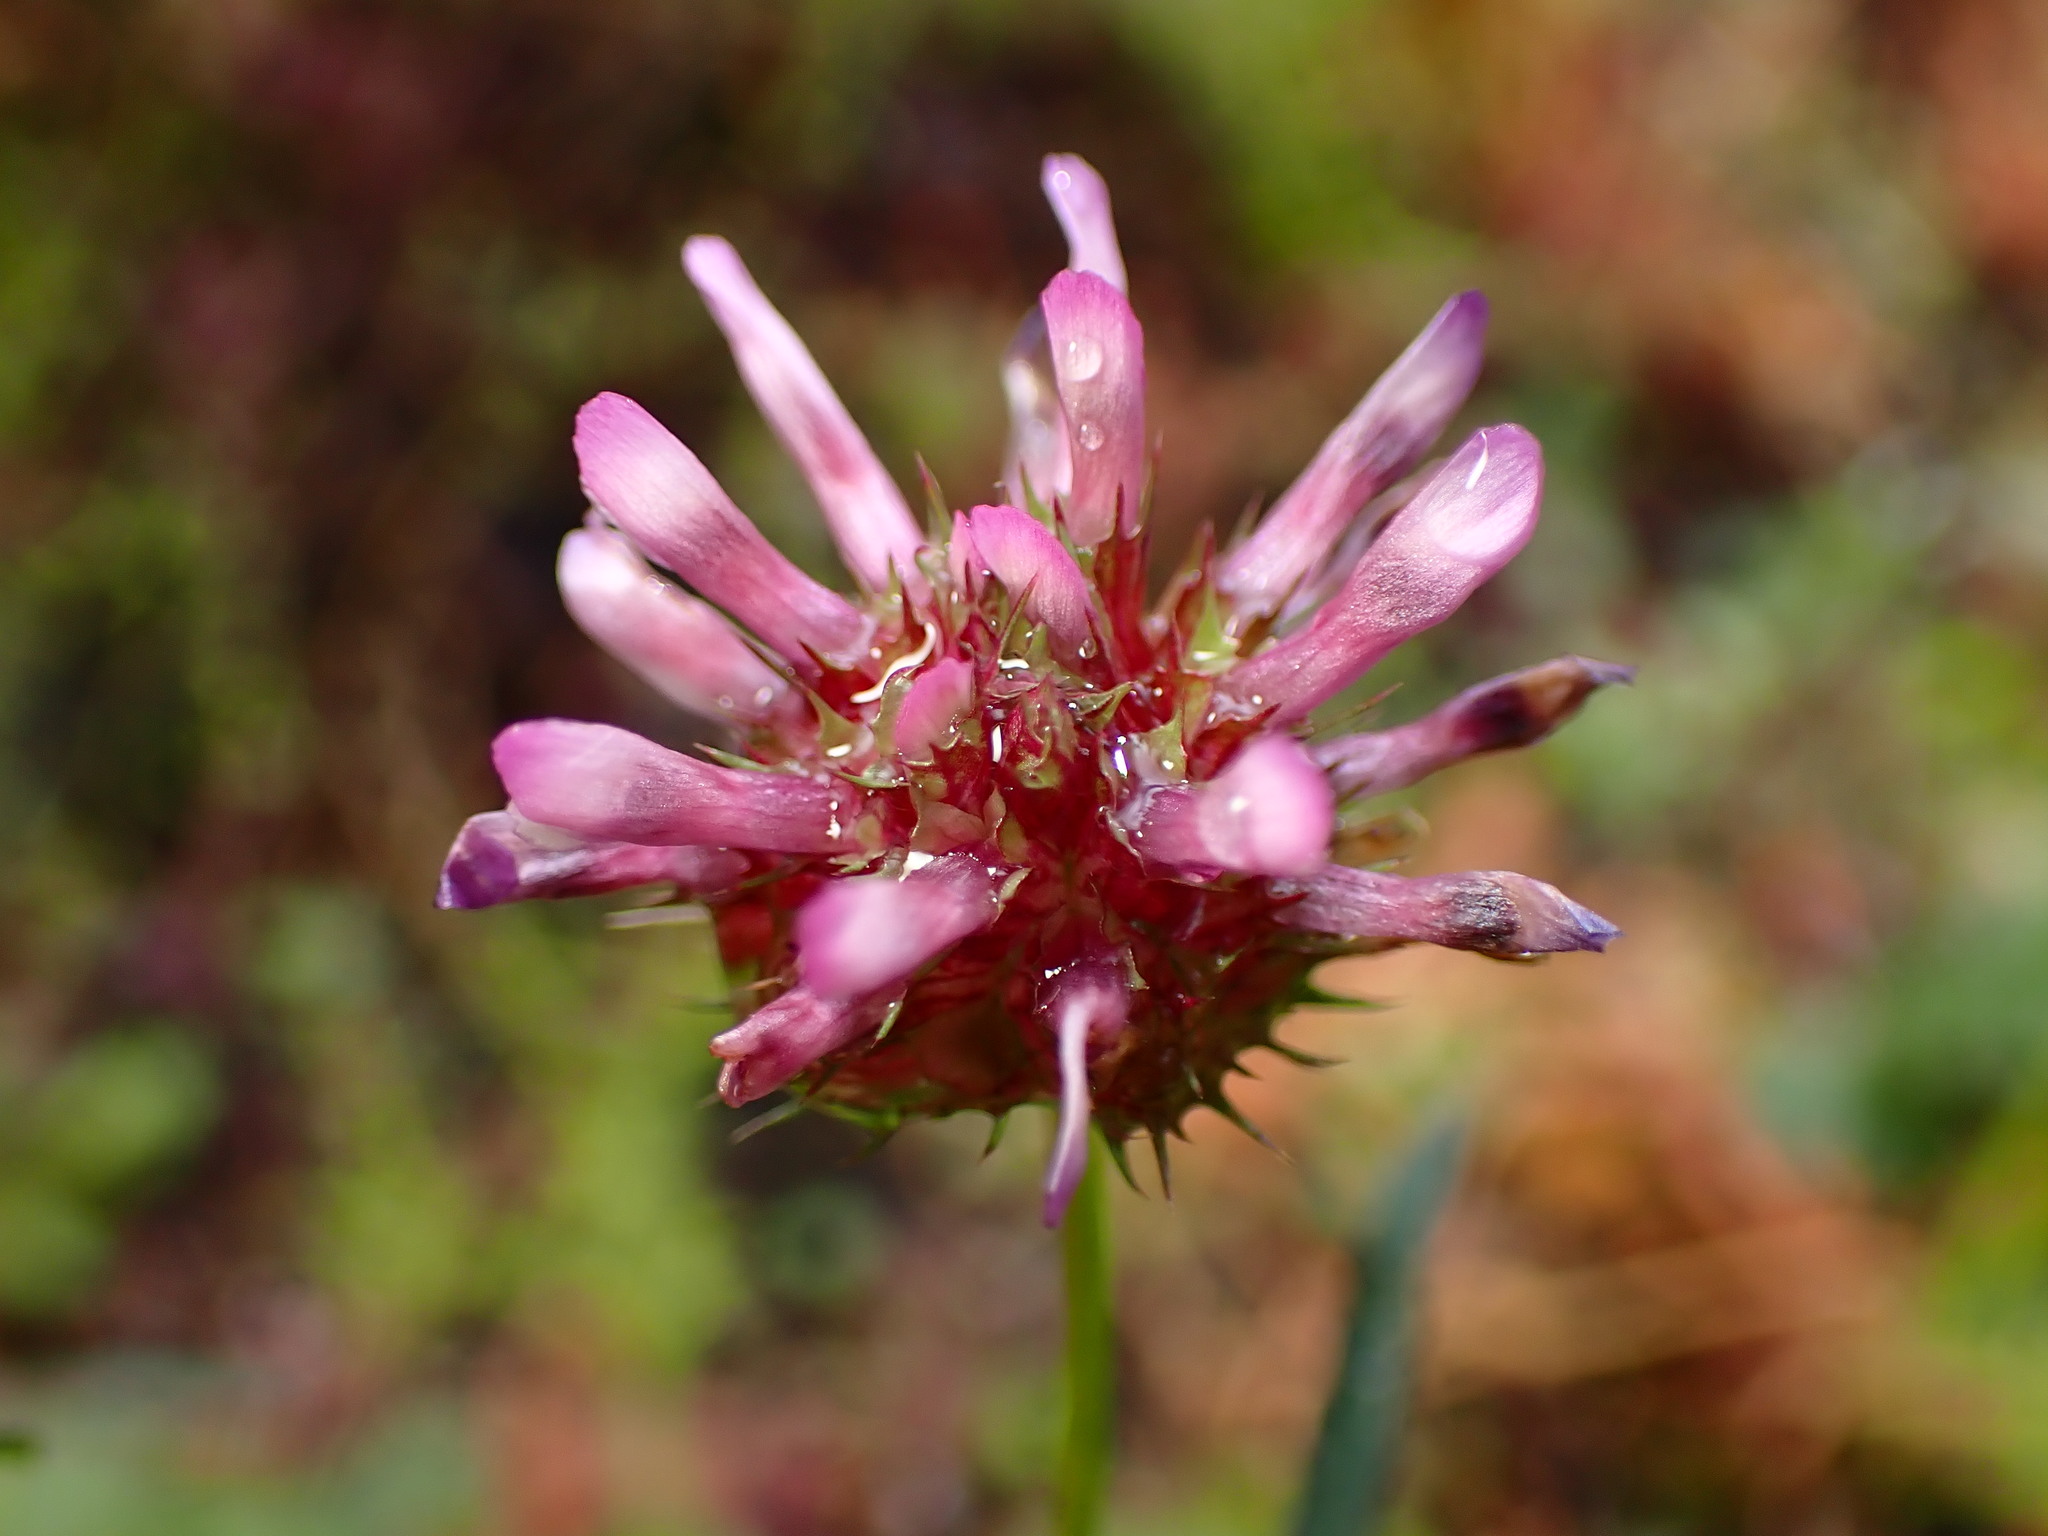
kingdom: Plantae
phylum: Tracheophyta
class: Magnoliopsida
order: Fabales
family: Fabaceae
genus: Trifolium
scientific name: Trifolium willdenovii
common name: Tomcat clover
